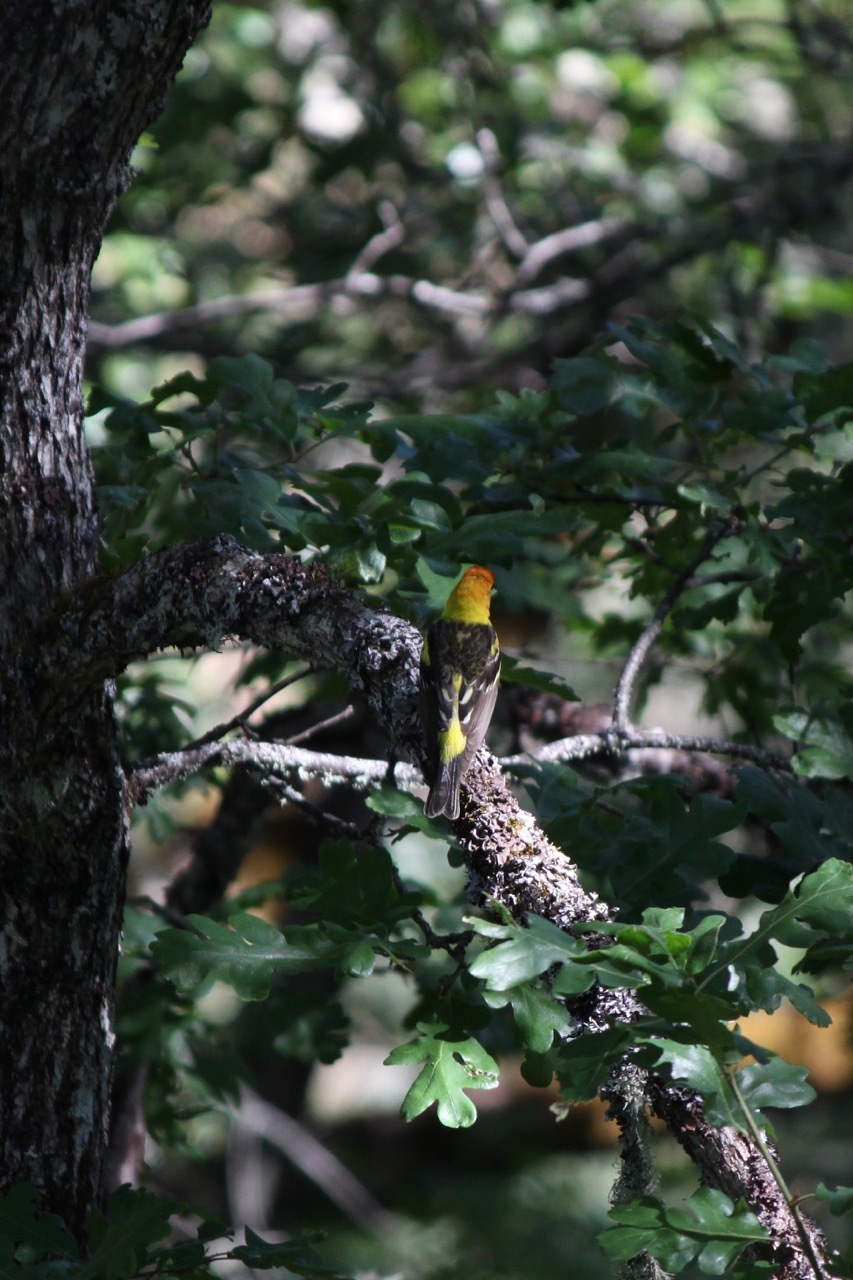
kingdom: Animalia
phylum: Chordata
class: Aves
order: Passeriformes
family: Cardinalidae
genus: Piranga
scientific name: Piranga ludoviciana
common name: Western tanager
